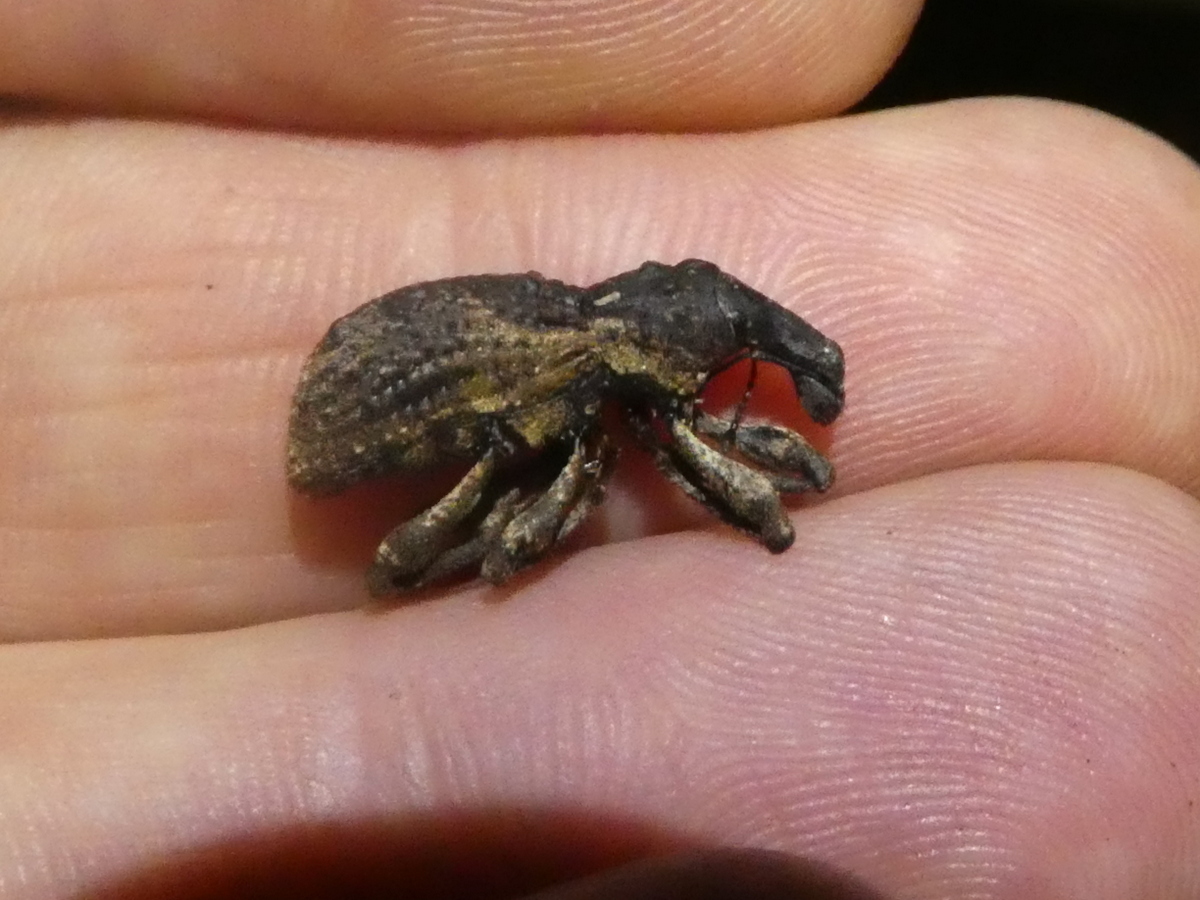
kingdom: Animalia
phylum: Arthropoda
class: Insecta
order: Coleoptera
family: Curculionidae
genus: Anagotus
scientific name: Anagotus rugosus
